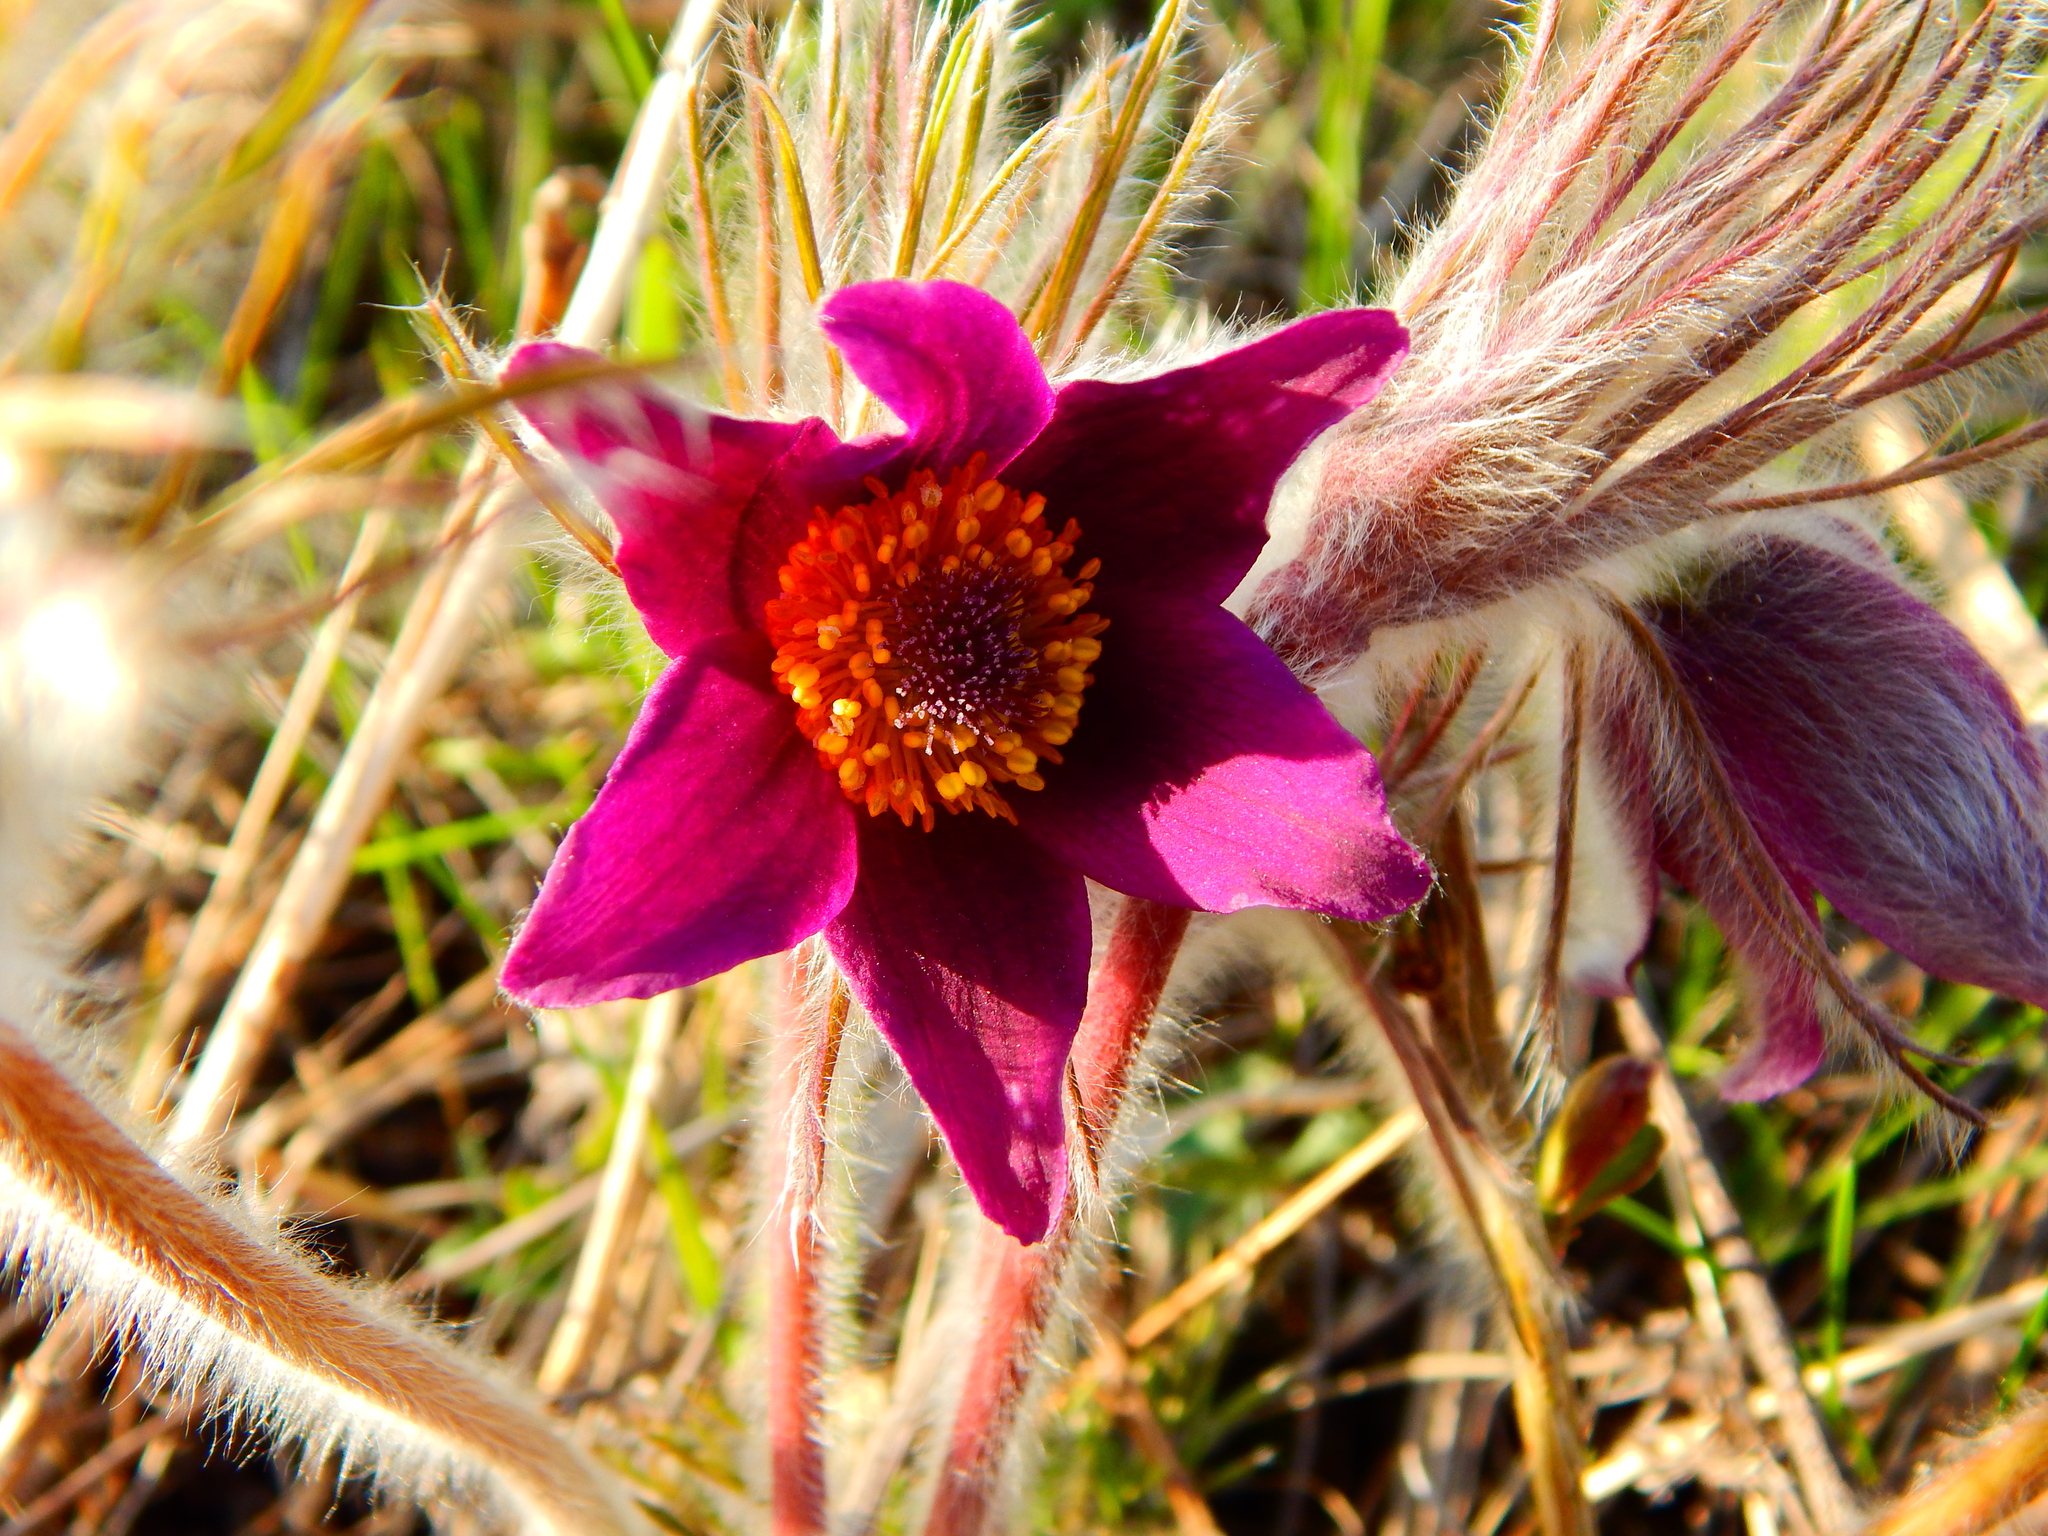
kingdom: Plantae
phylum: Tracheophyta
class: Magnoliopsida
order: Ranunculales
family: Ranunculaceae
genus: Pulsatilla
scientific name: Pulsatilla pratensis
